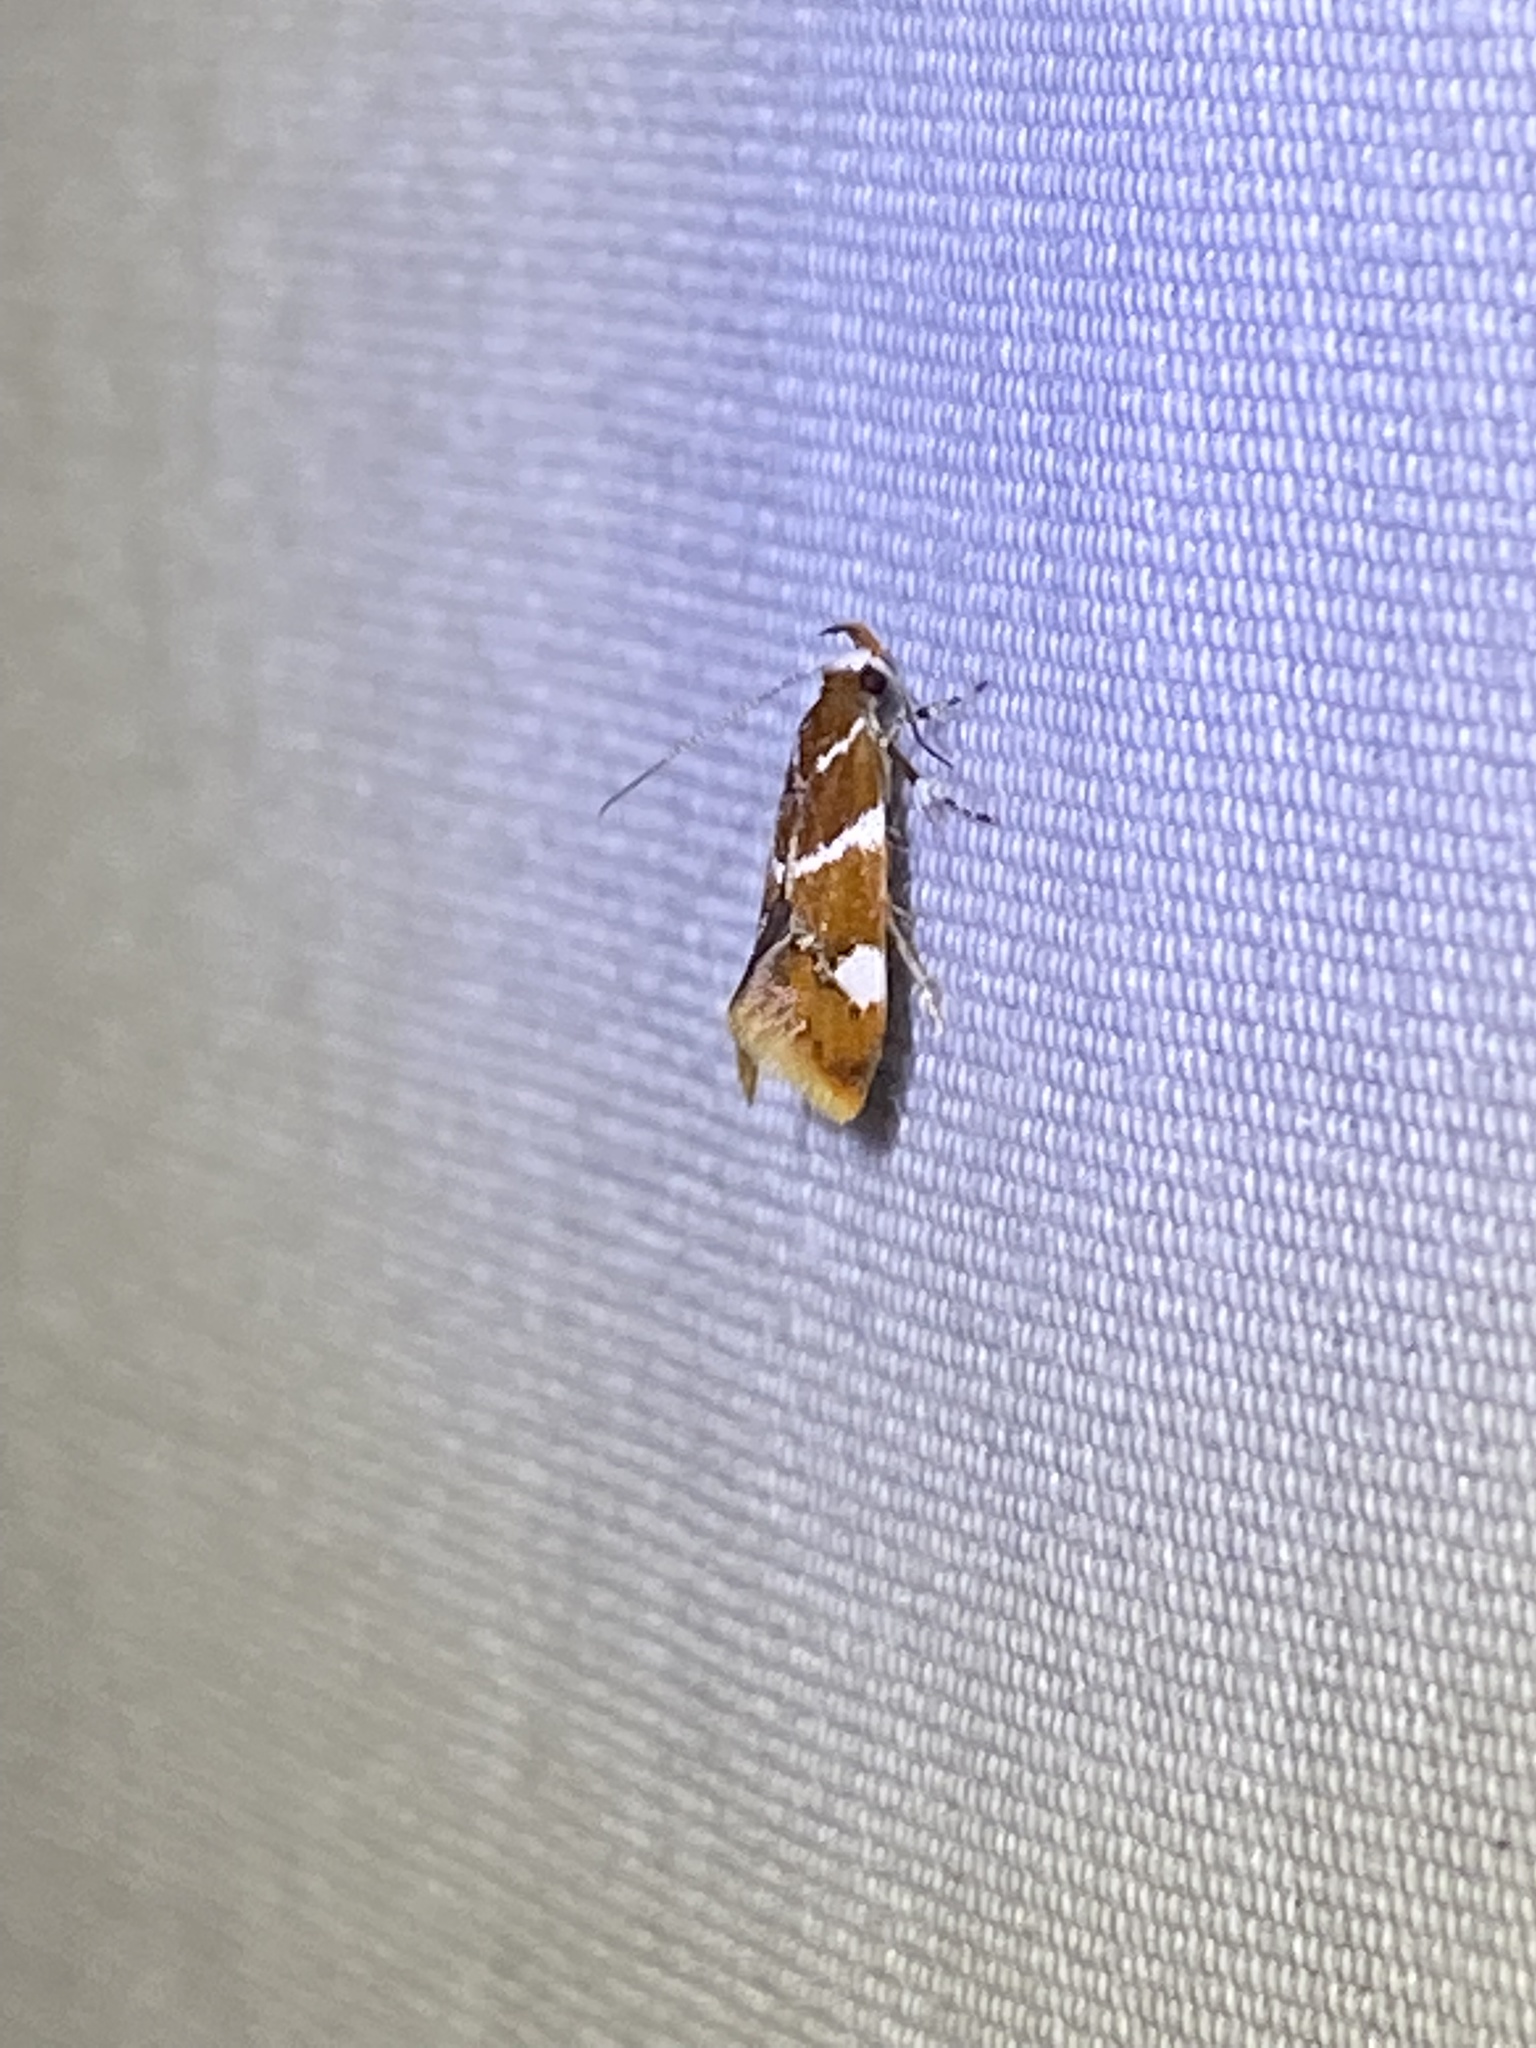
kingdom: Animalia
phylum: Arthropoda
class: Insecta
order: Lepidoptera
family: Oecophoridae
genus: Promalactis
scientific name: Promalactis suzukiella
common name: Moth
